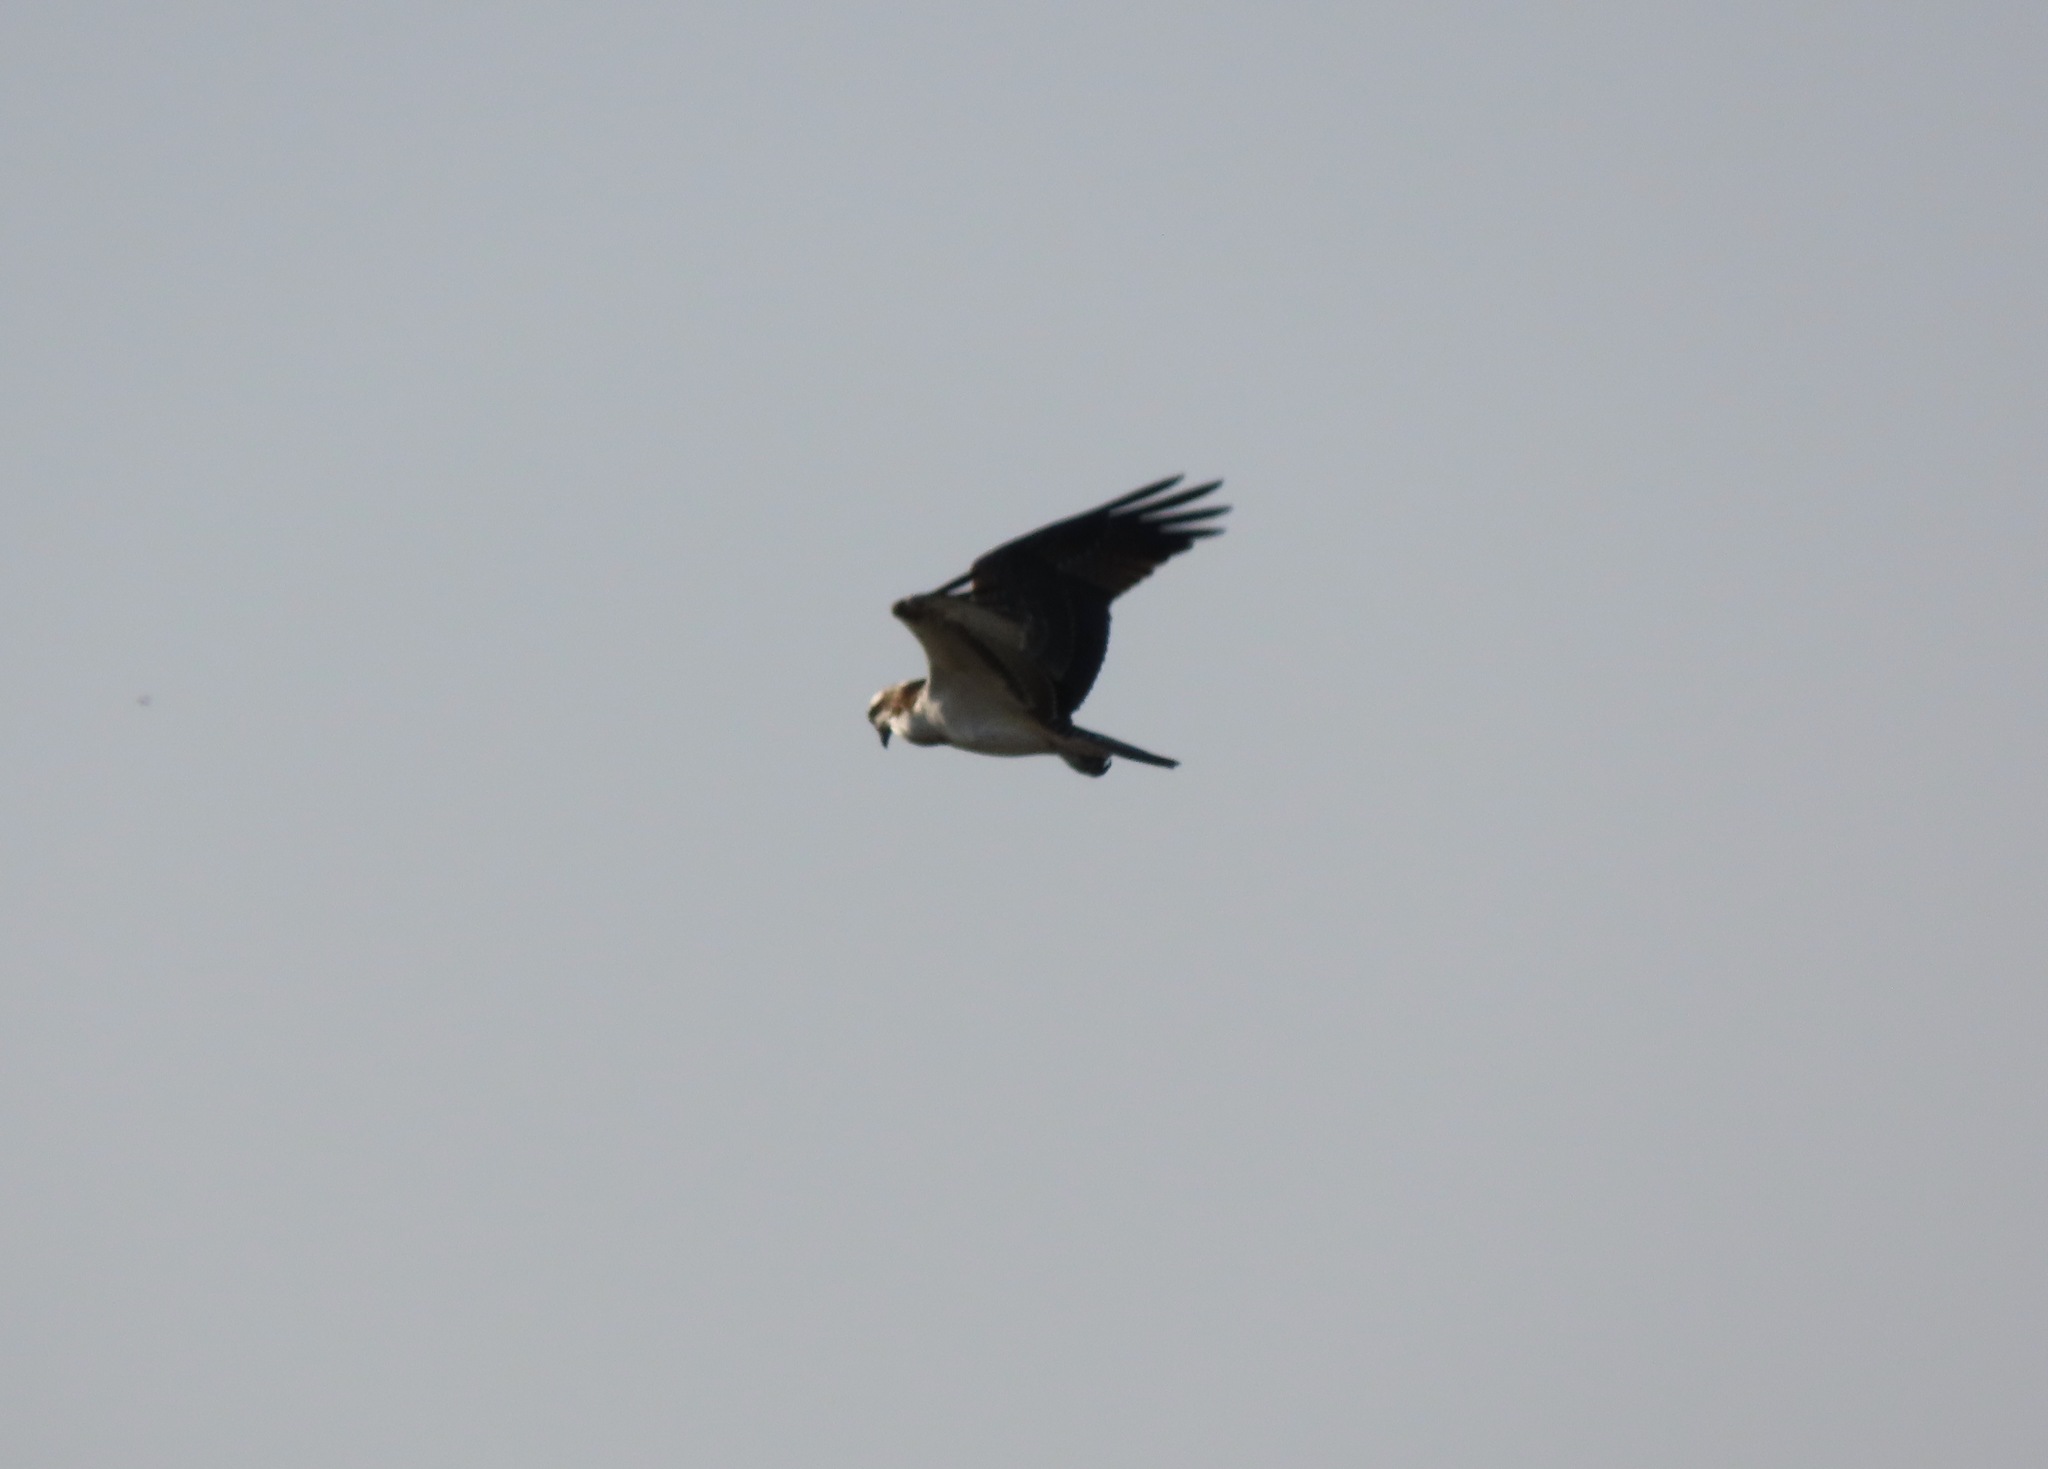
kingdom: Animalia
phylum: Chordata
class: Aves
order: Accipitriformes
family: Pandionidae
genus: Pandion
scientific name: Pandion haliaetus
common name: Osprey
